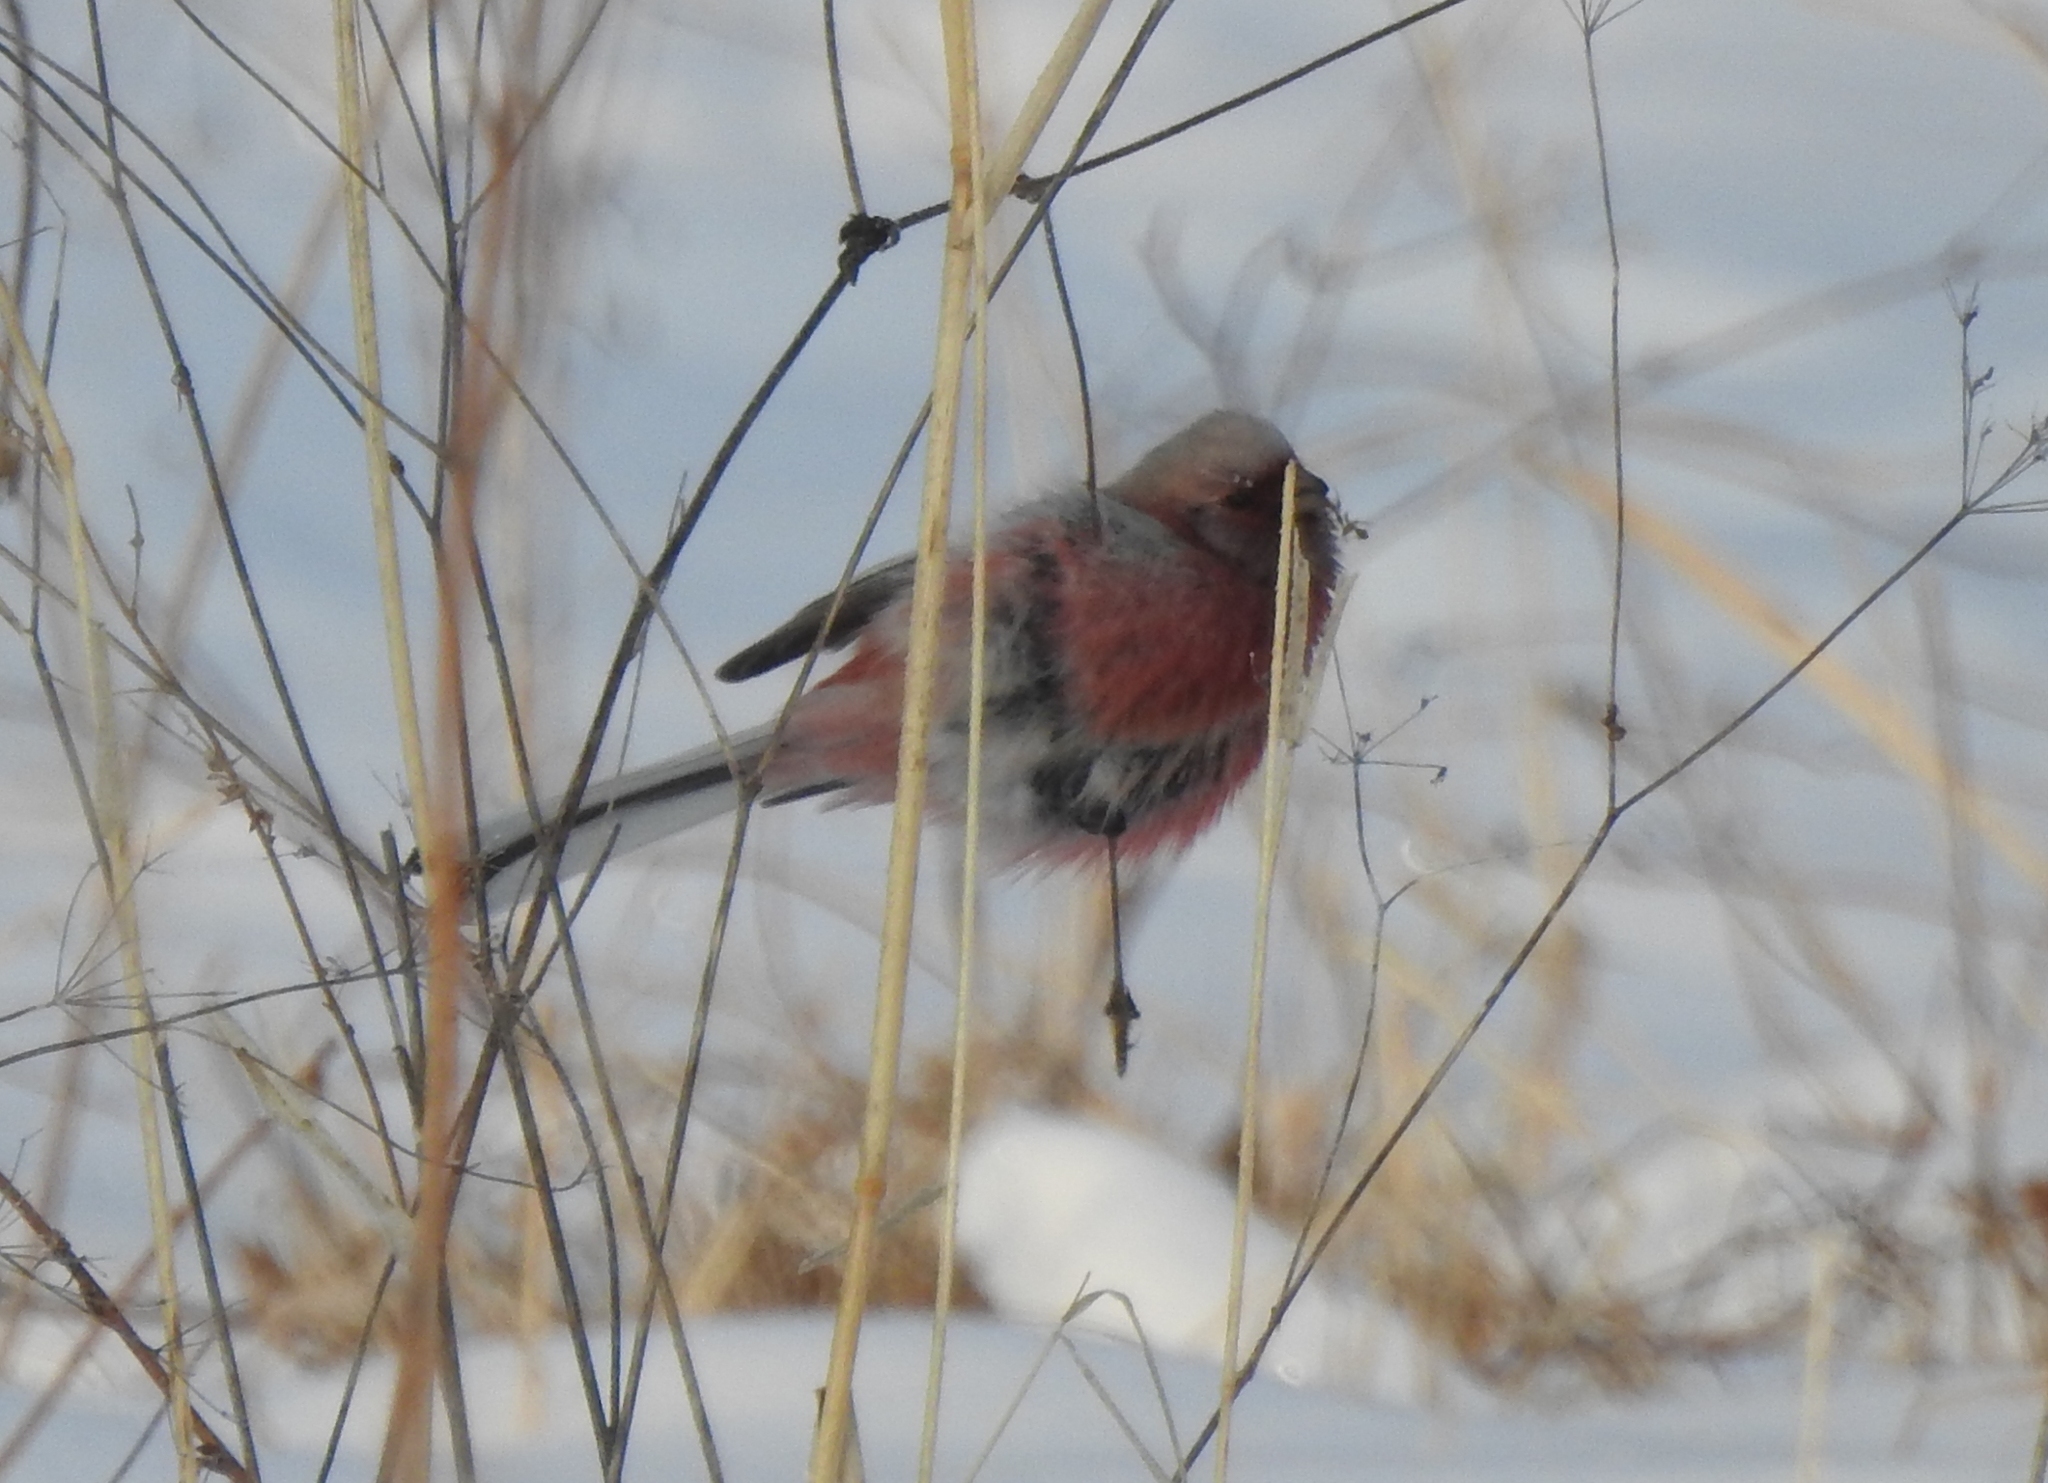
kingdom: Animalia
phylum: Chordata
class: Aves
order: Passeriformes
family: Fringillidae
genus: Carpodacus
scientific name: Carpodacus sibiricus
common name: Long-tailed rosefinch
